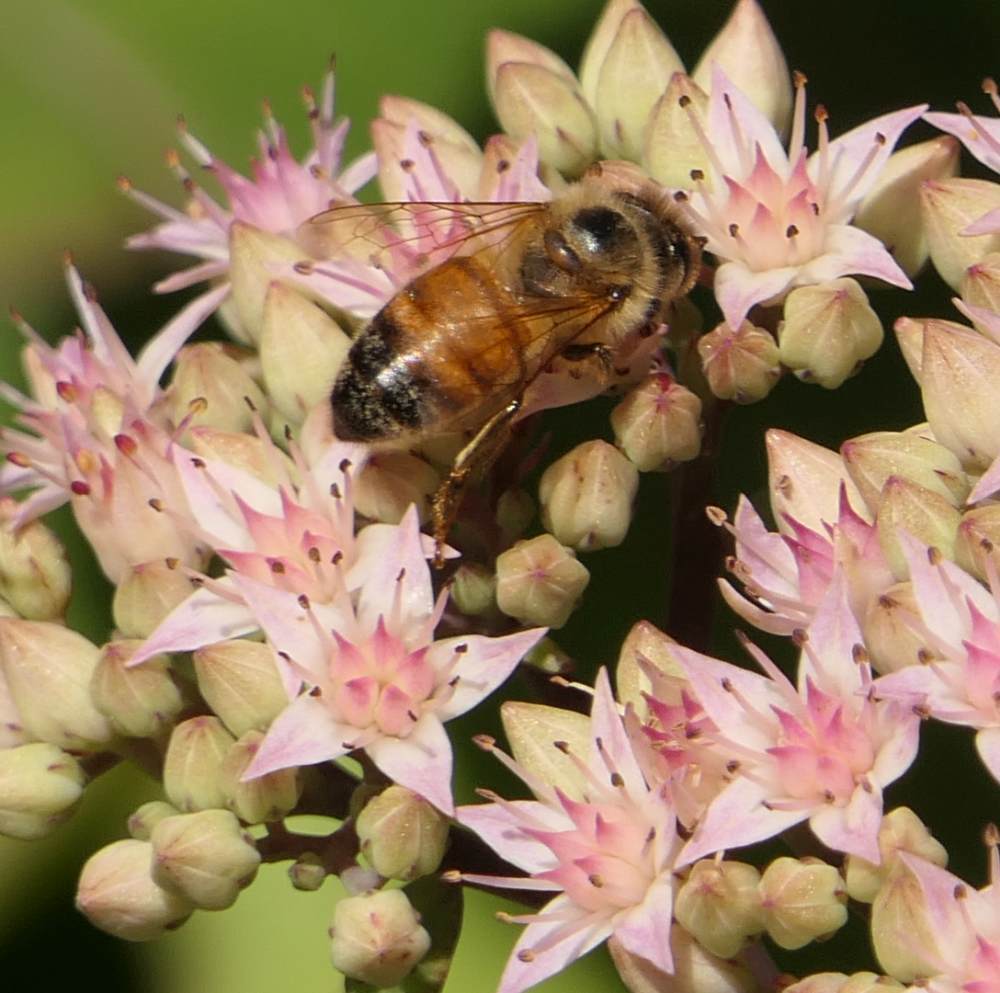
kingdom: Animalia
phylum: Arthropoda
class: Insecta
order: Hymenoptera
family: Apidae
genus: Apis
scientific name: Apis mellifera
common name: Honey bee
